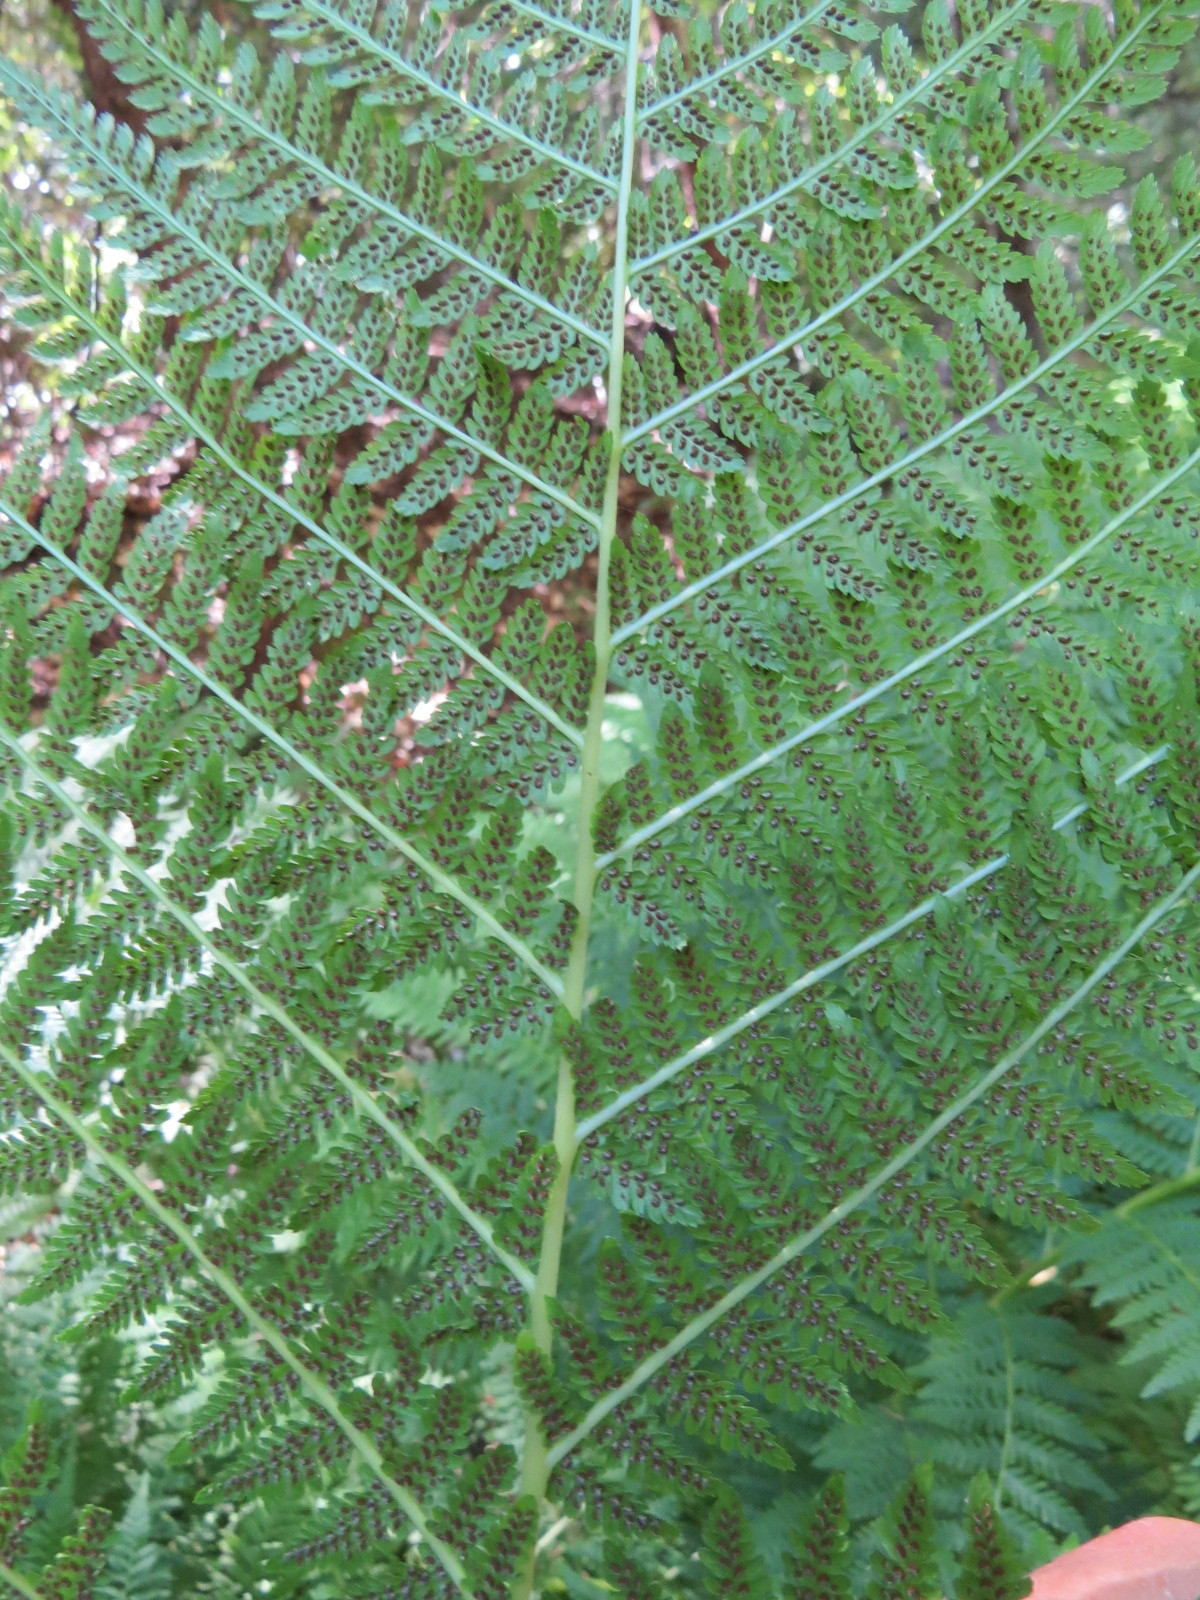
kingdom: Plantae
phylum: Tracheophyta
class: Polypodiopsida
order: Polypodiales
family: Athyriaceae
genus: Athyrium
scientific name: Athyrium filix-femina
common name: Lady fern
